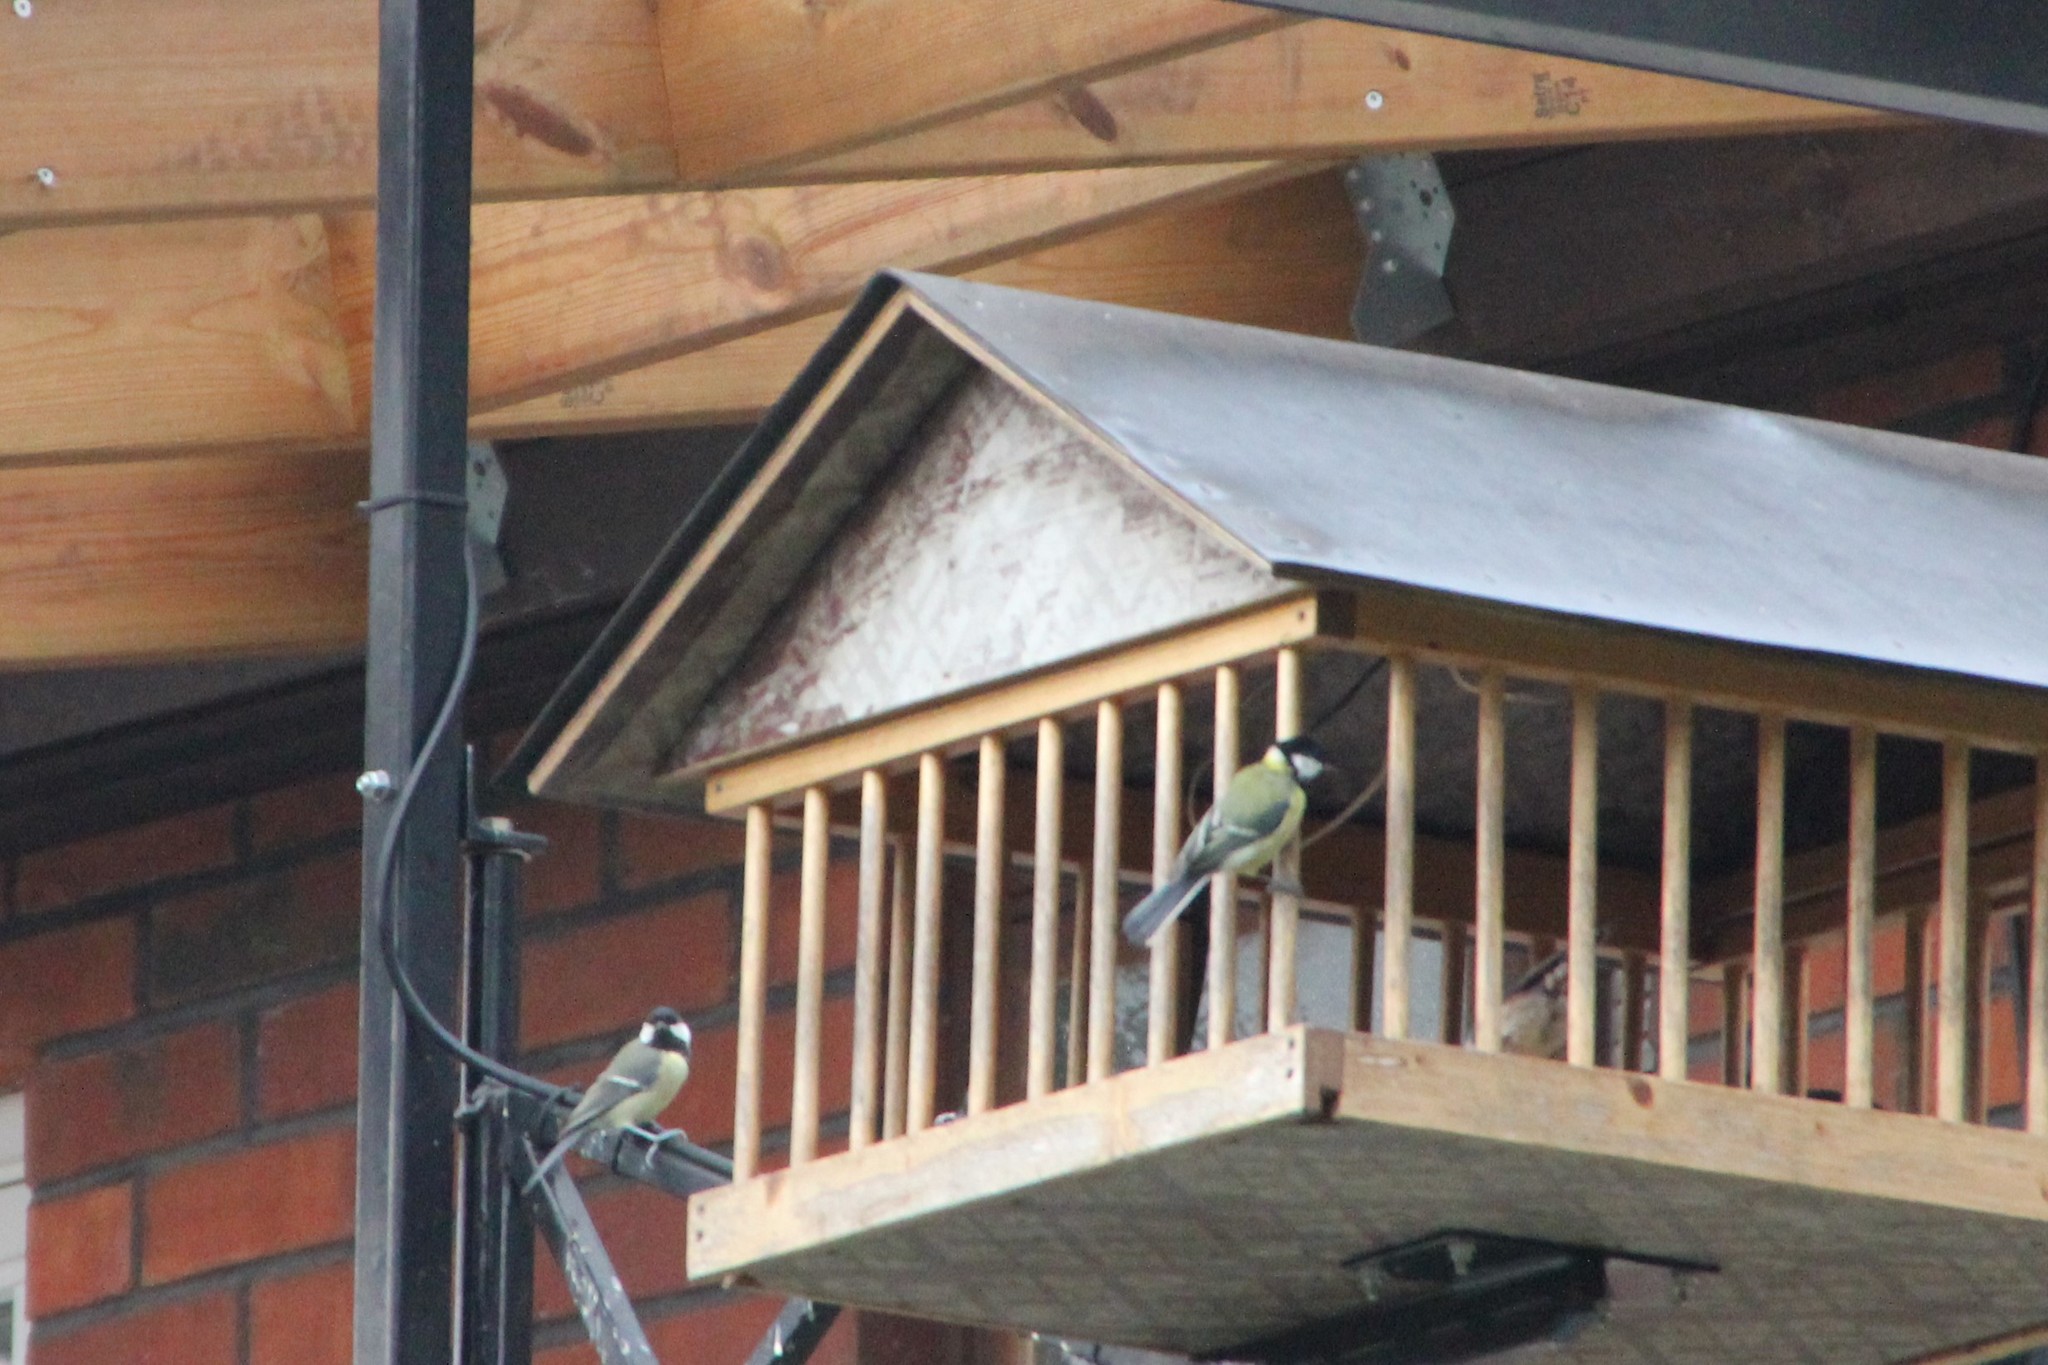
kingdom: Animalia
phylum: Chordata
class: Aves
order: Passeriformes
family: Paridae
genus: Parus
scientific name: Parus major
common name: Great tit
